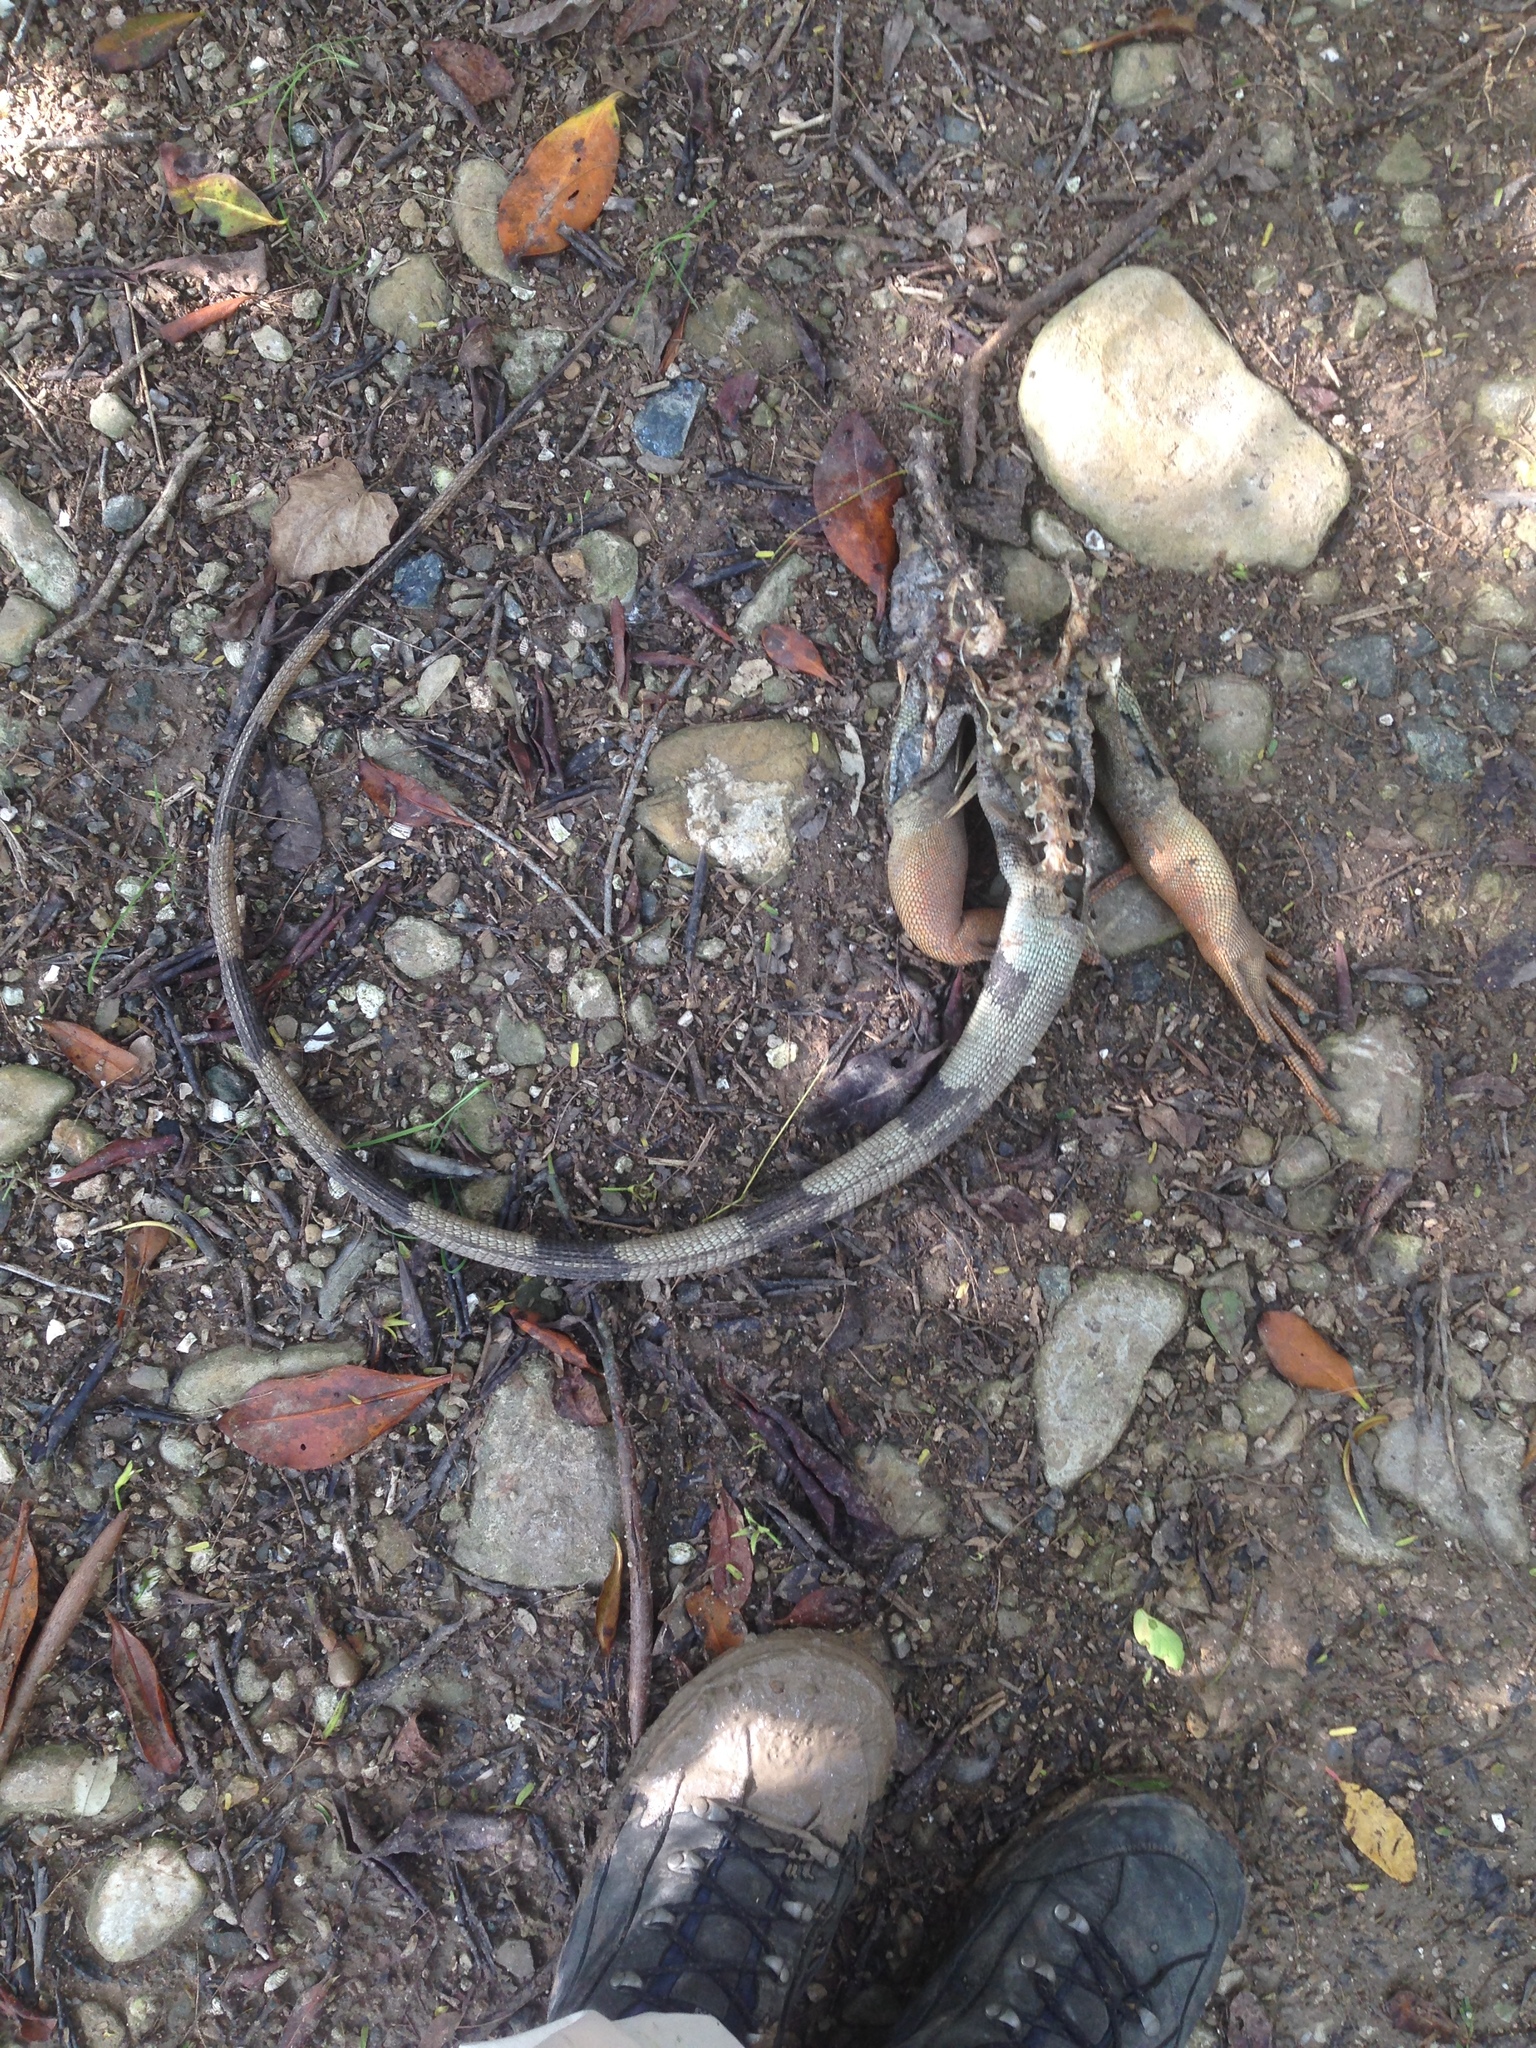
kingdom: Animalia
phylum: Chordata
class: Squamata
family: Iguanidae
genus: Iguana
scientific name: Iguana iguana
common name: Green iguana
